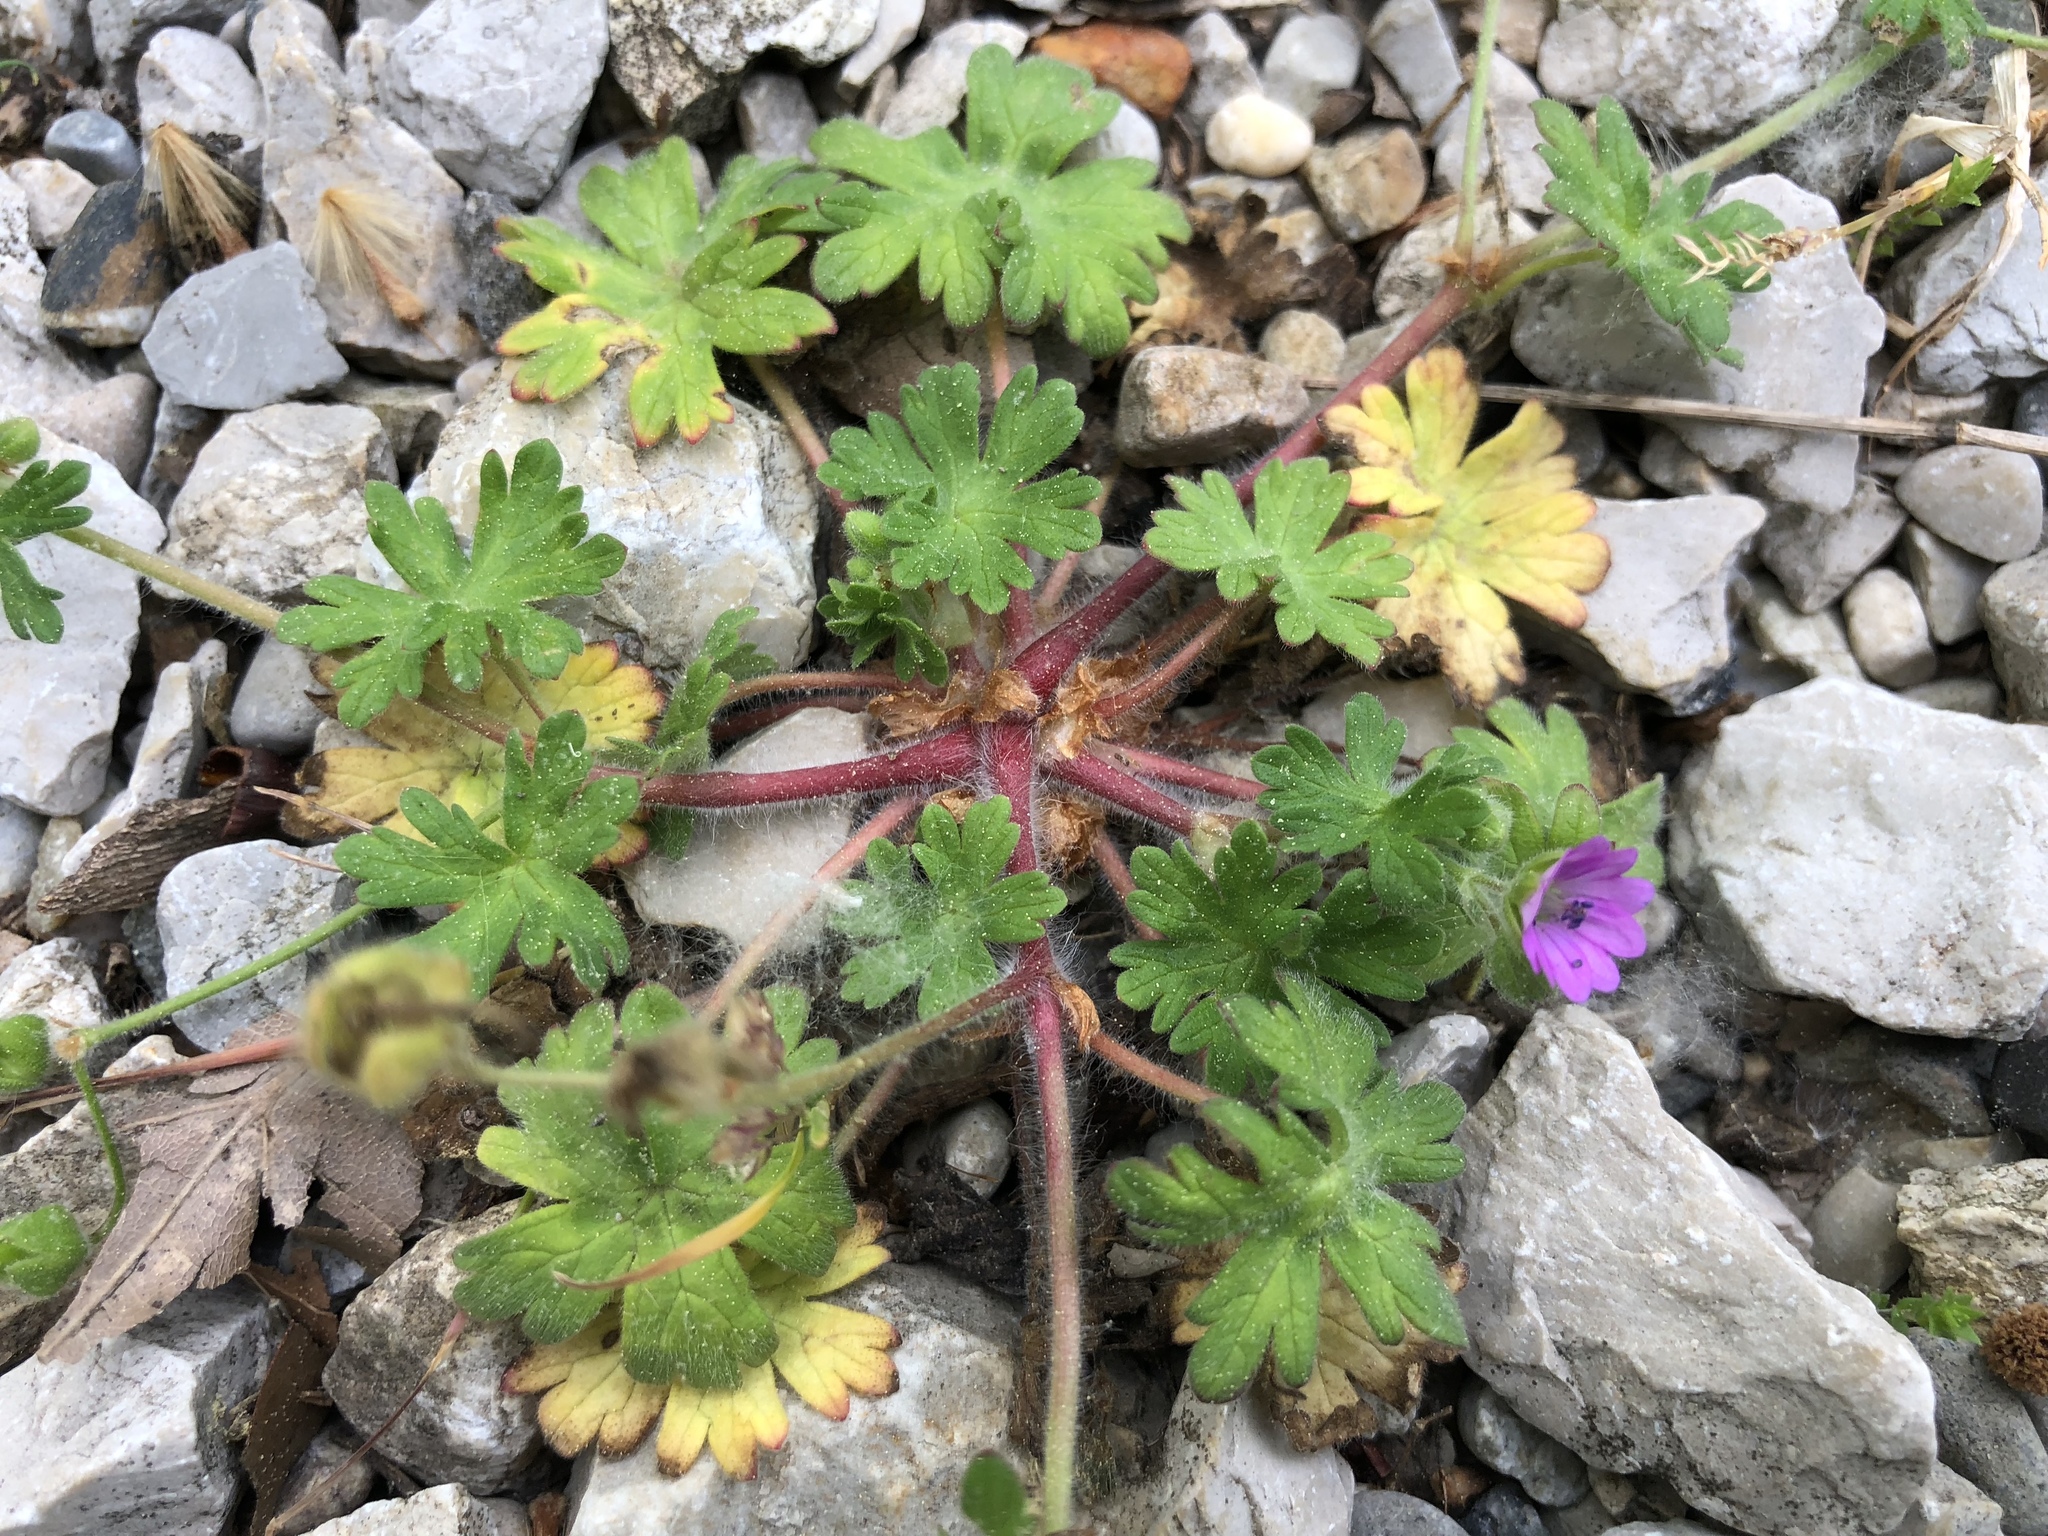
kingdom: Plantae
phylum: Tracheophyta
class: Magnoliopsida
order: Geraniales
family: Geraniaceae
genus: Geranium
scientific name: Geranium molle
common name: Dove's-foot crane's-bill
